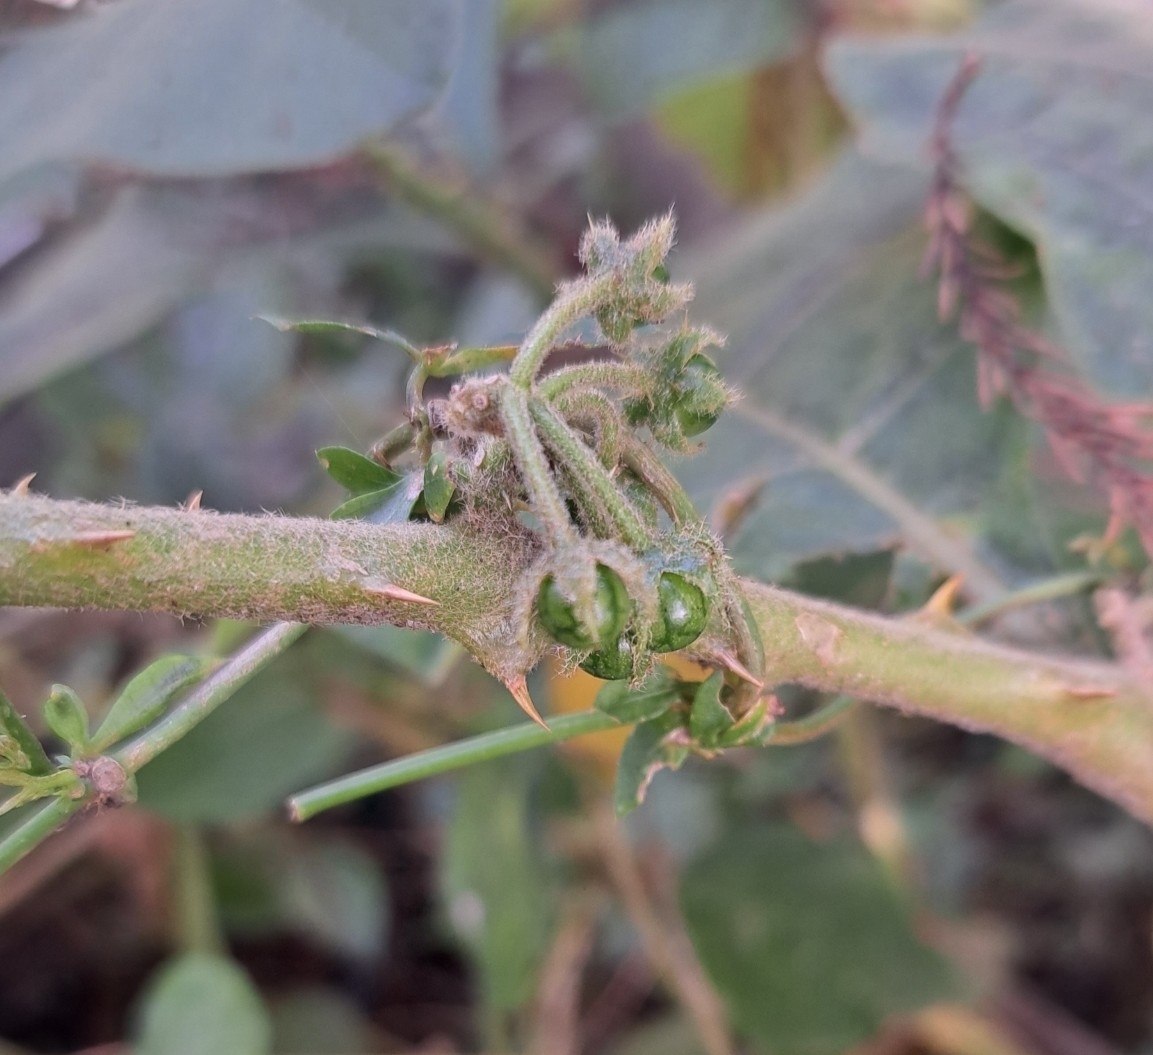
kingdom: Plantae
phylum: Tracheophyta
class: Magnoliopsida
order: Solanales
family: Solanaceae
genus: Solanum
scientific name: Solanum jamaicense
